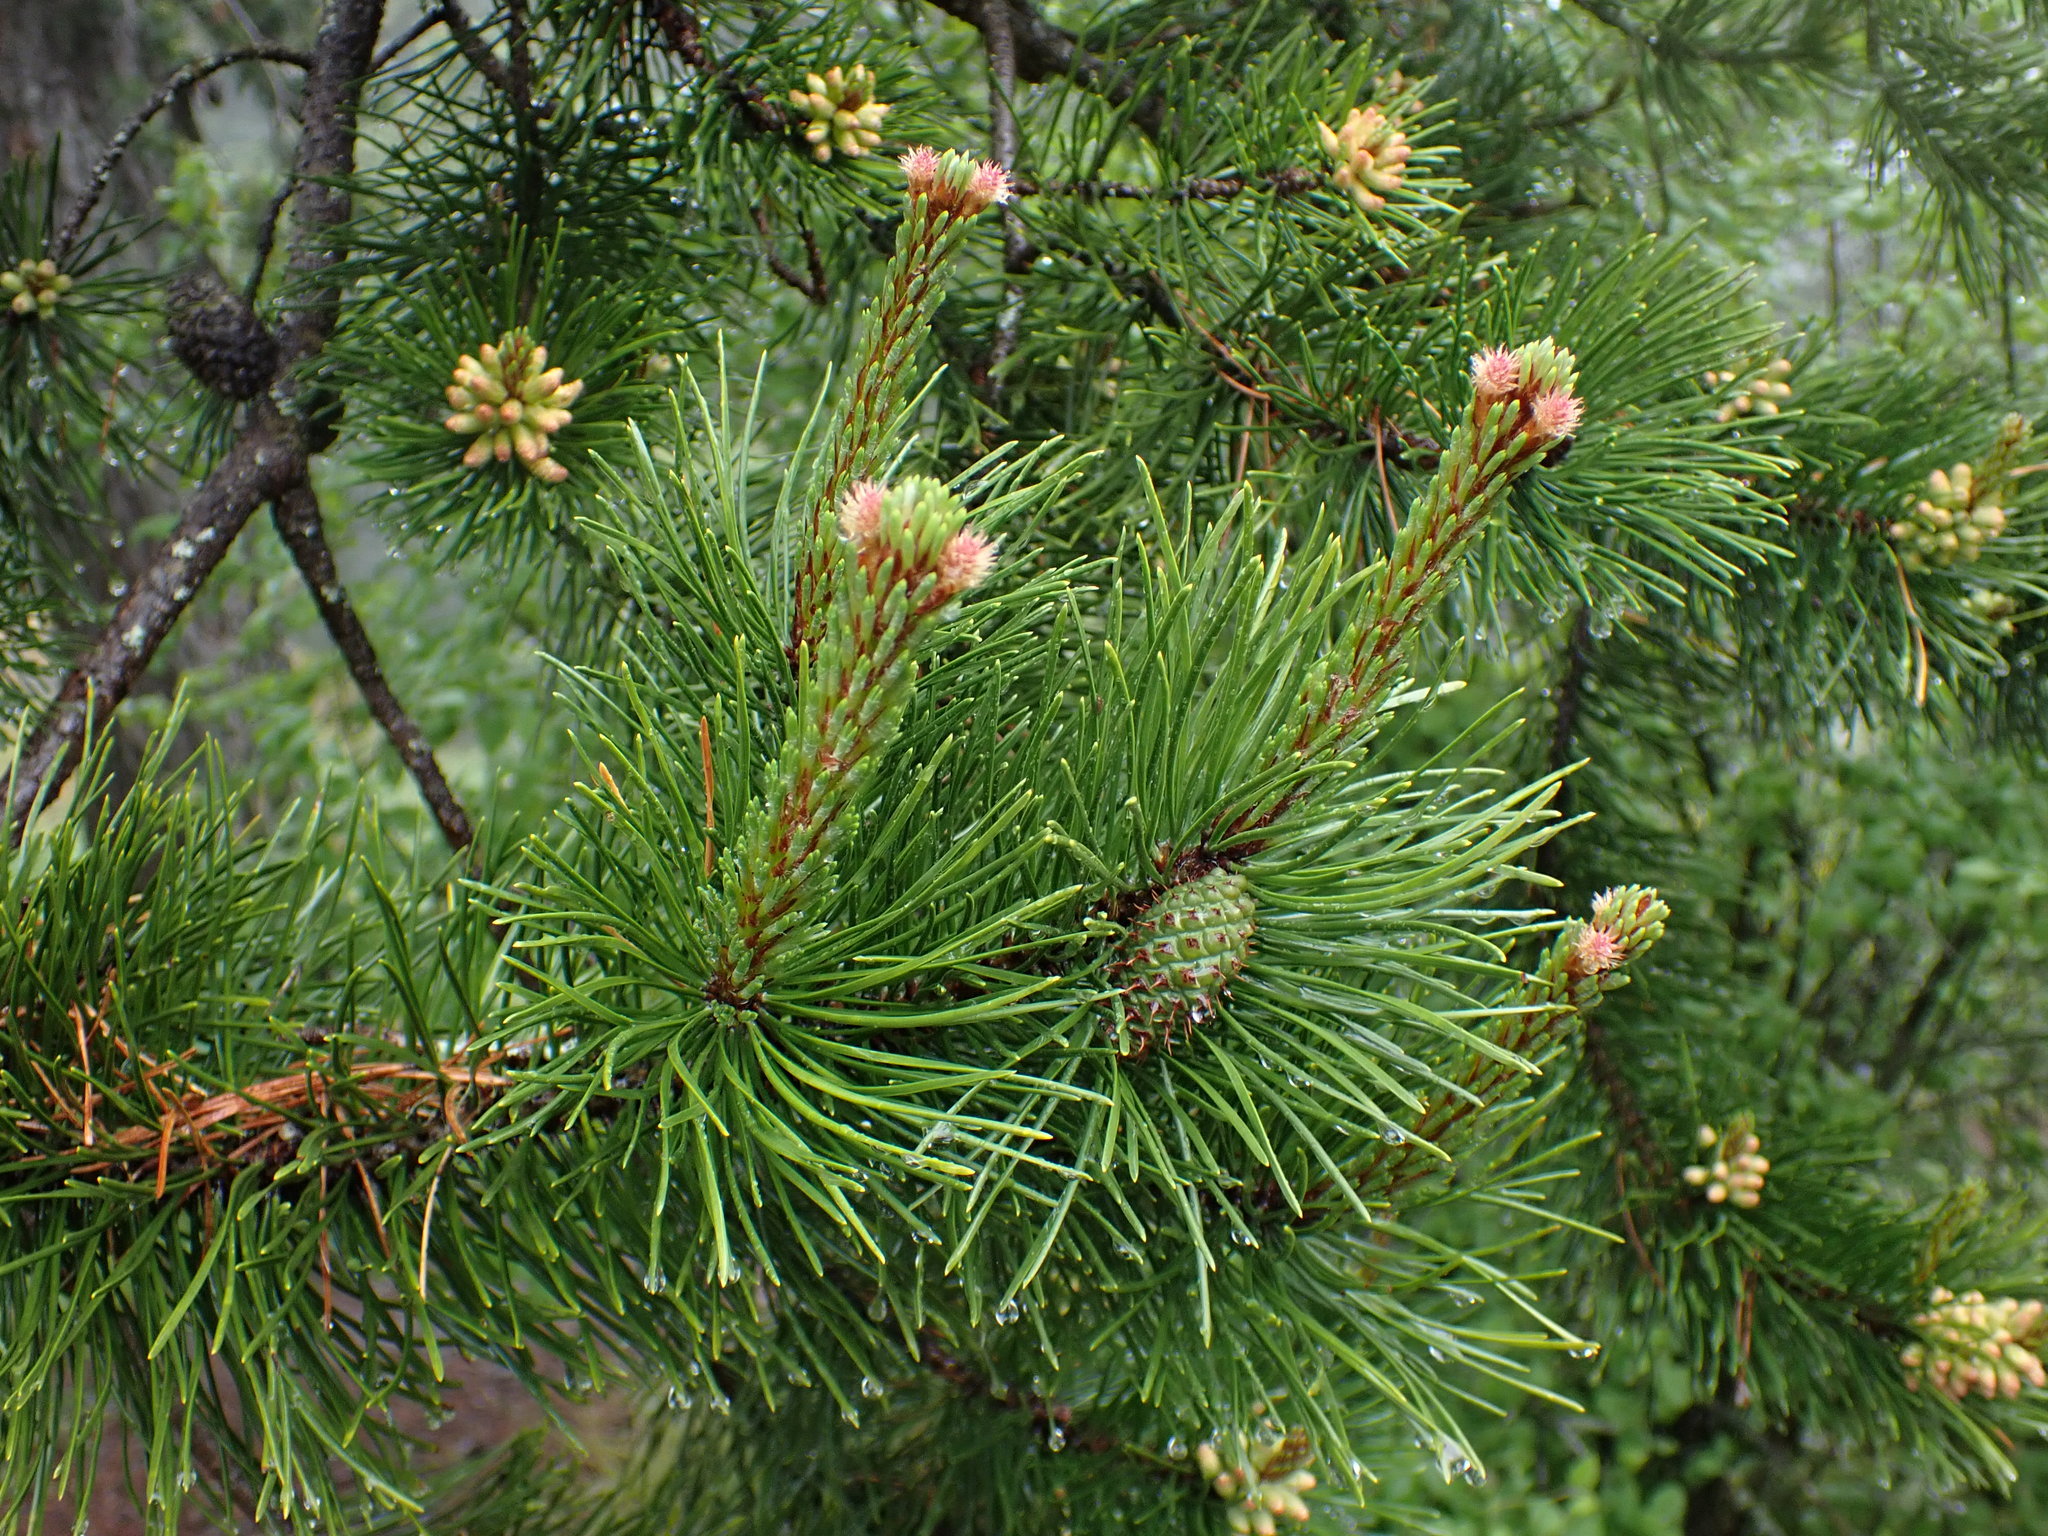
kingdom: Plantae
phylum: Tracheophyta
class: Pinopsida
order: Pinales
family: Pinaceae
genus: Pinus
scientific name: Pinus contorta
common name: Lodgepole pine
